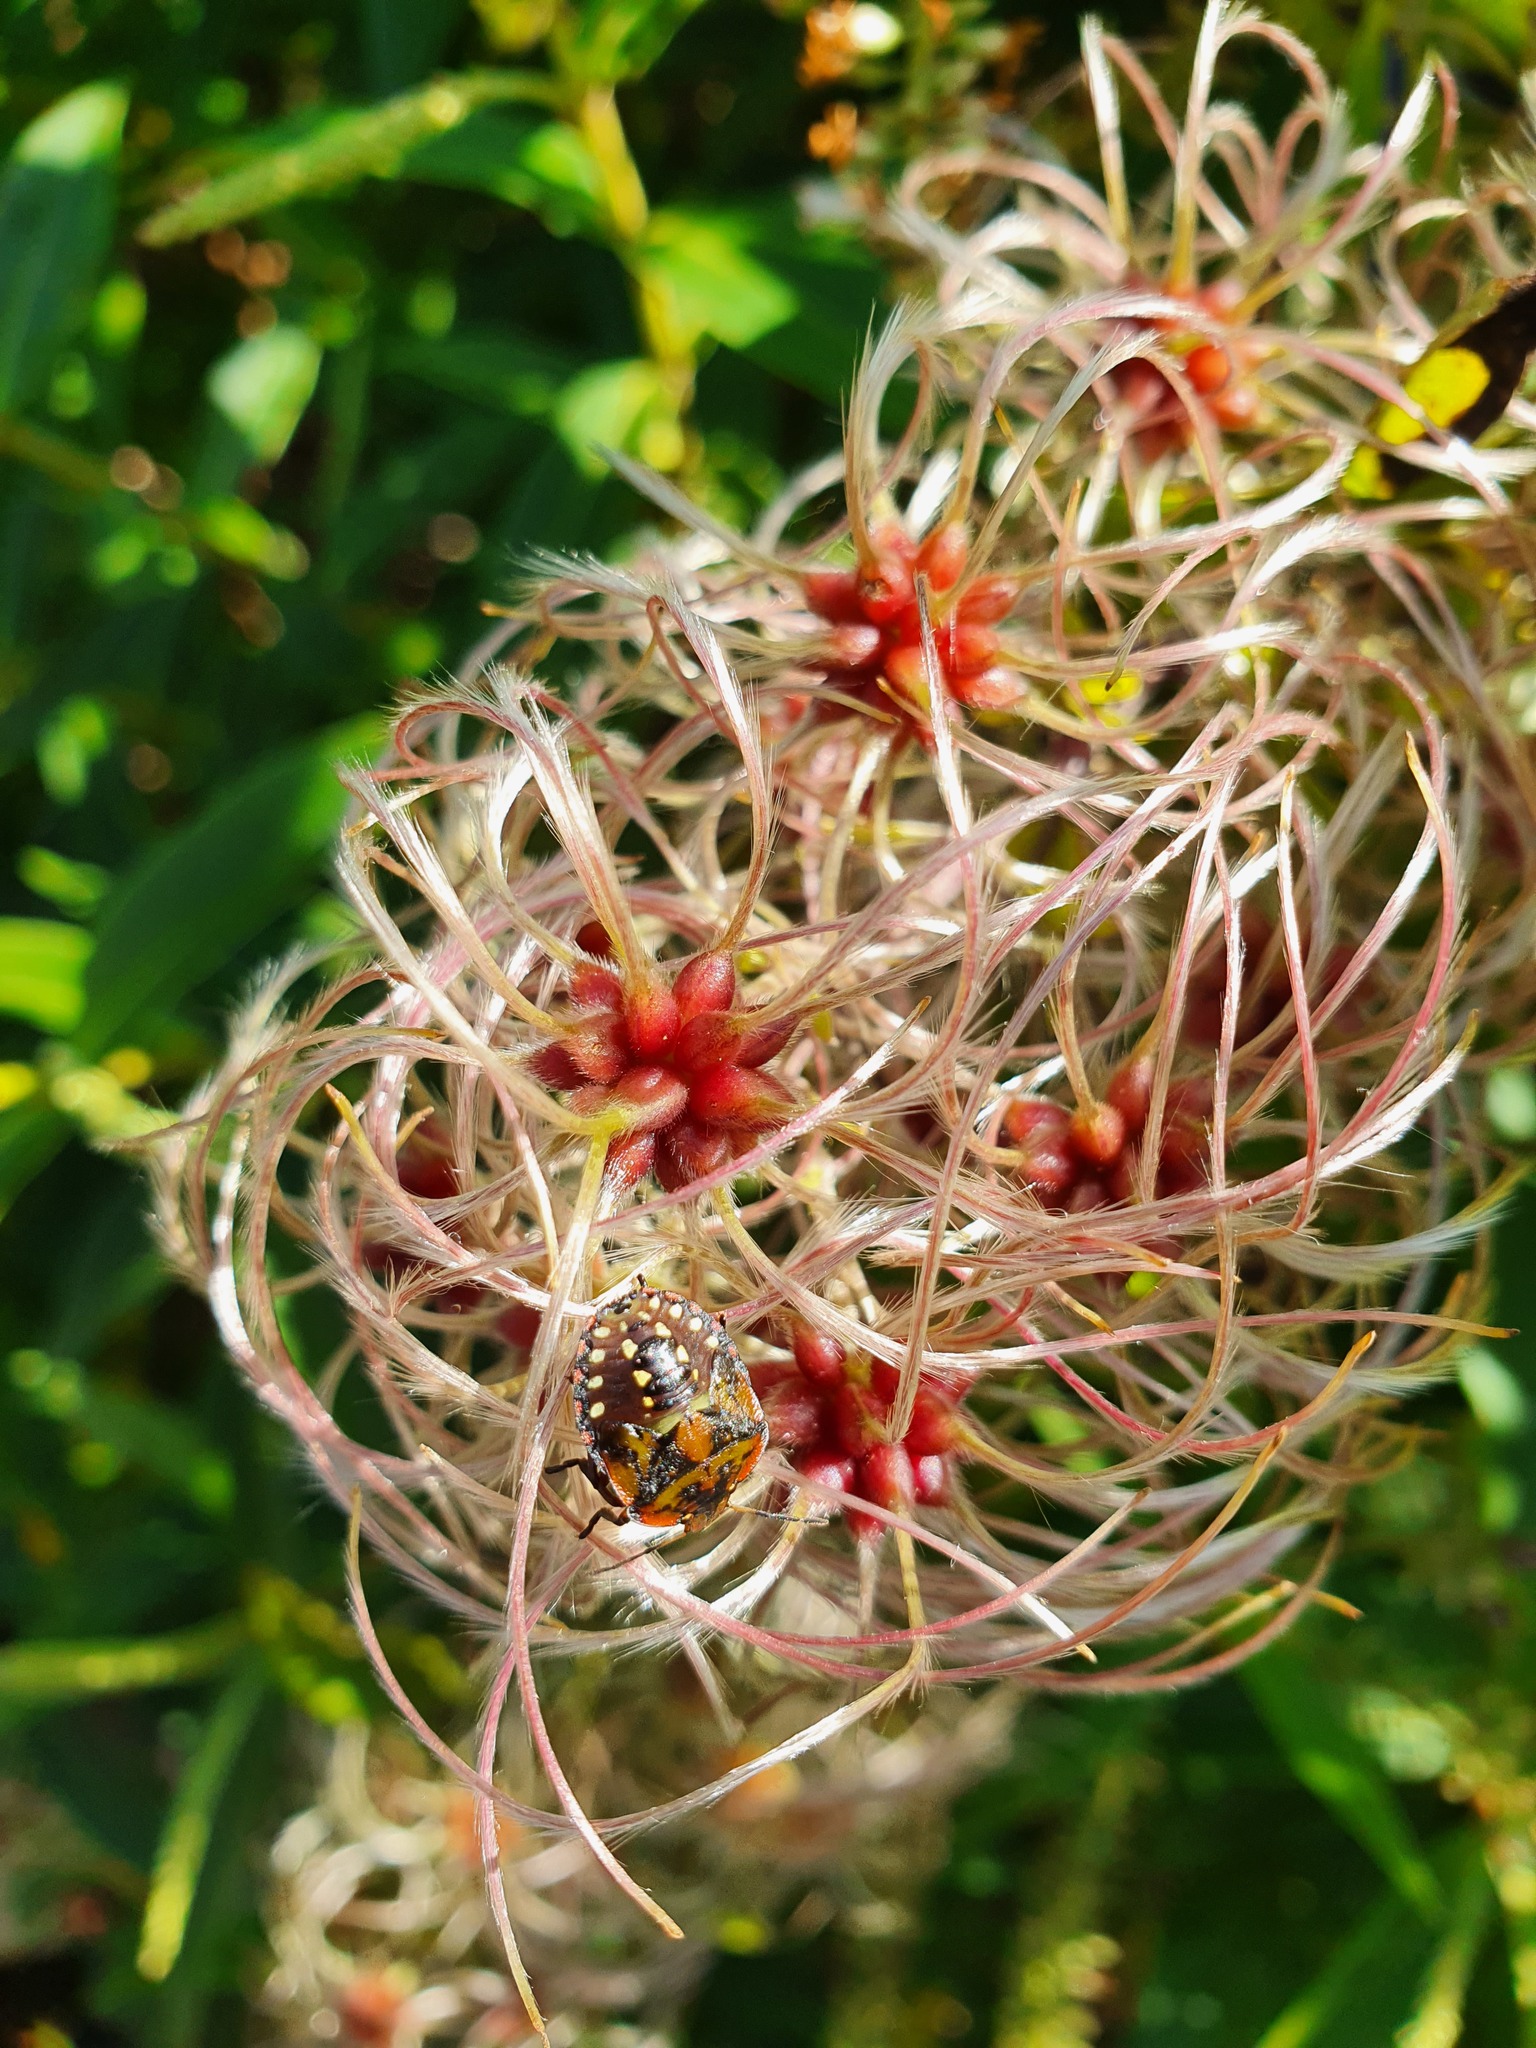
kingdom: Animalia
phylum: Arthropoda
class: Insecta
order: Hemiptera
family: Pentatomidae
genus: Nezara
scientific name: Nezara viridula
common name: Southern green stink bug
